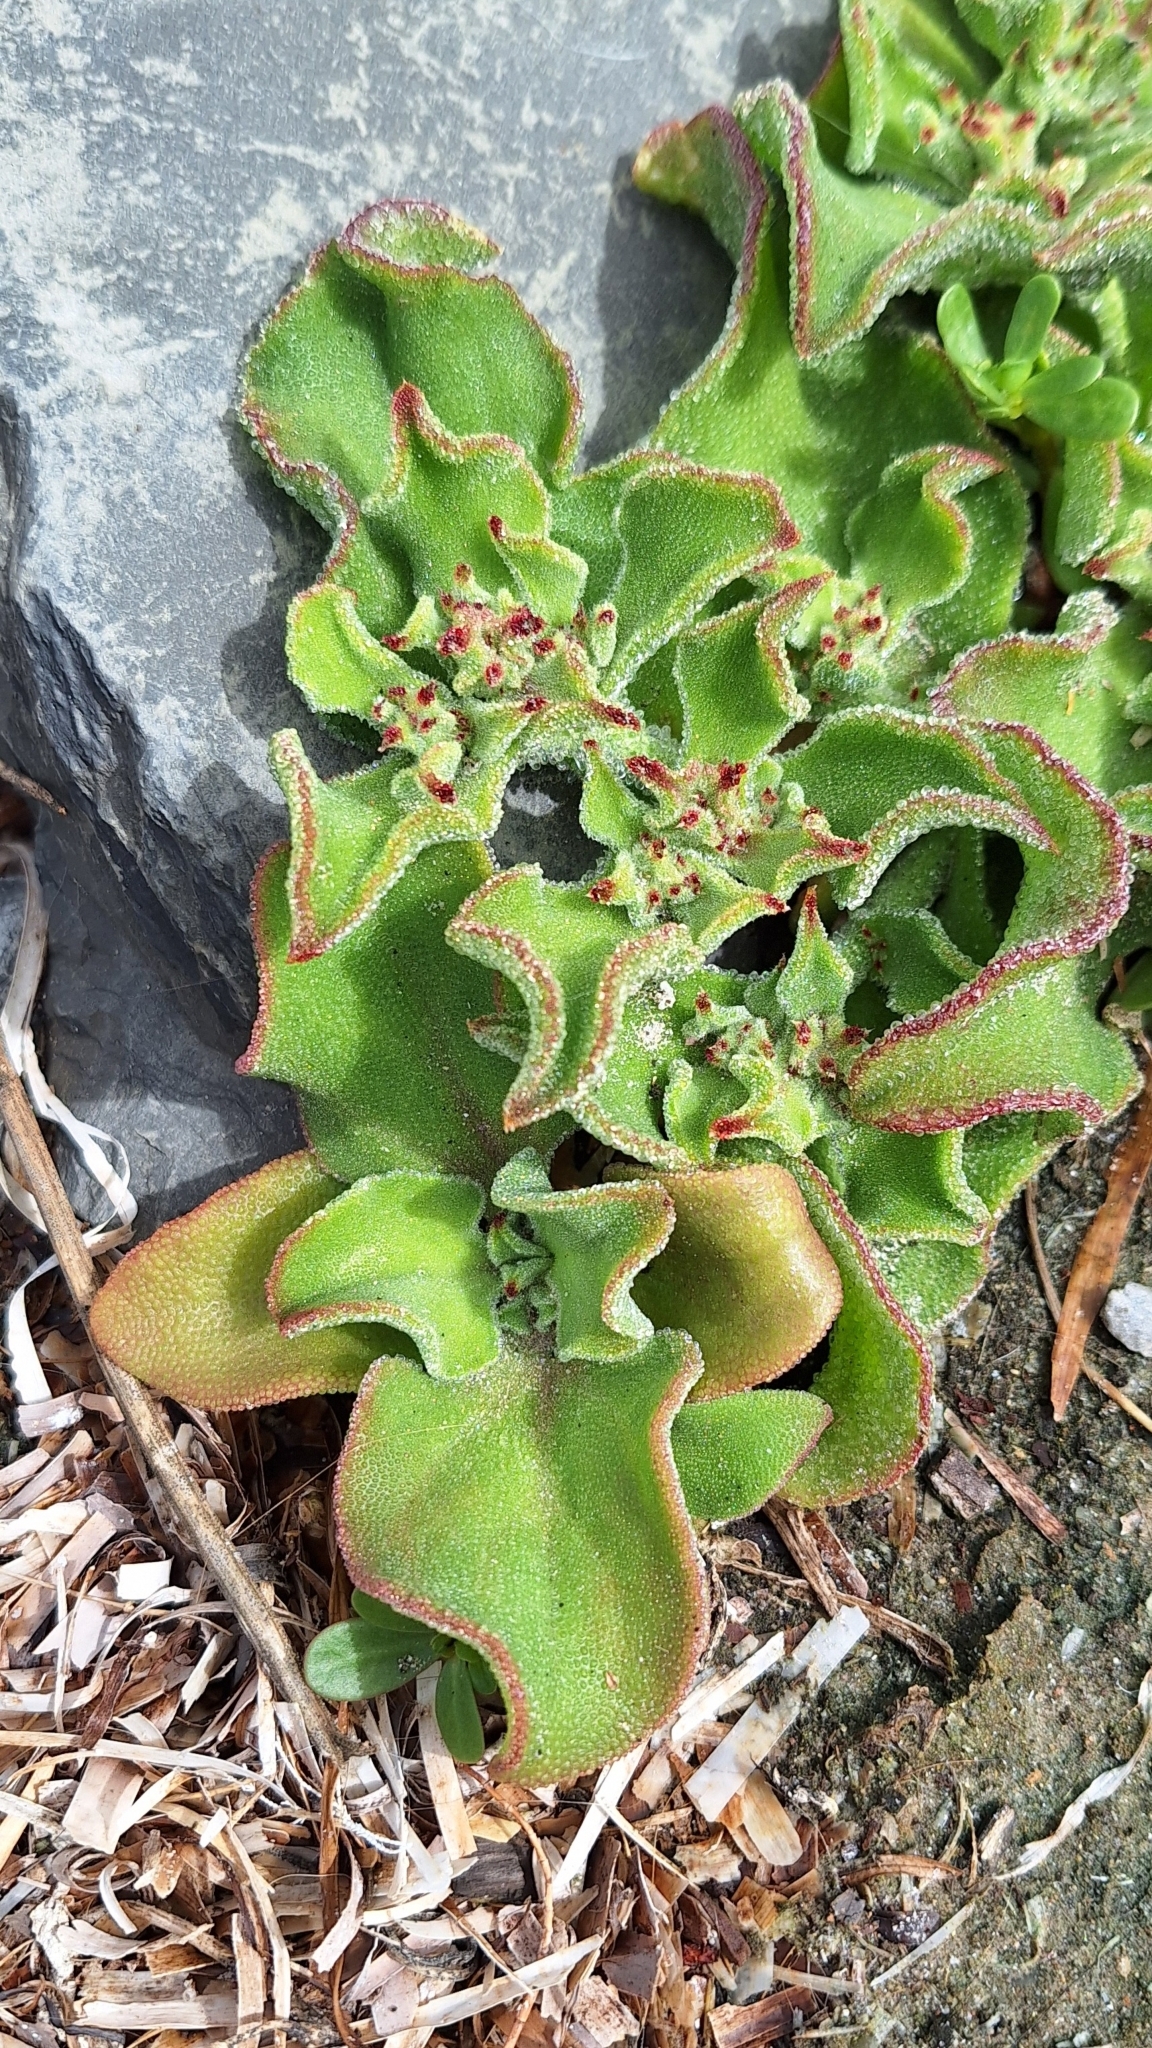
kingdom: Plantae
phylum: Tracheophyta
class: Magnoliopsida
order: Caryophyllales
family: Aizoaceae
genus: Mesembryanthemum
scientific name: Mesembryanthemum crystallinum
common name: Common iceplant
